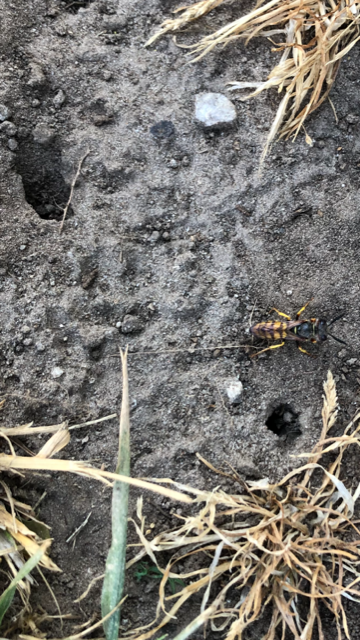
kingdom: Animalia
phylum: Arthropoda
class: Insecta
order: Hymenoptera
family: Crabronidae
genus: Philanthus
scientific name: Philanthus triangulum
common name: Bee wolf
